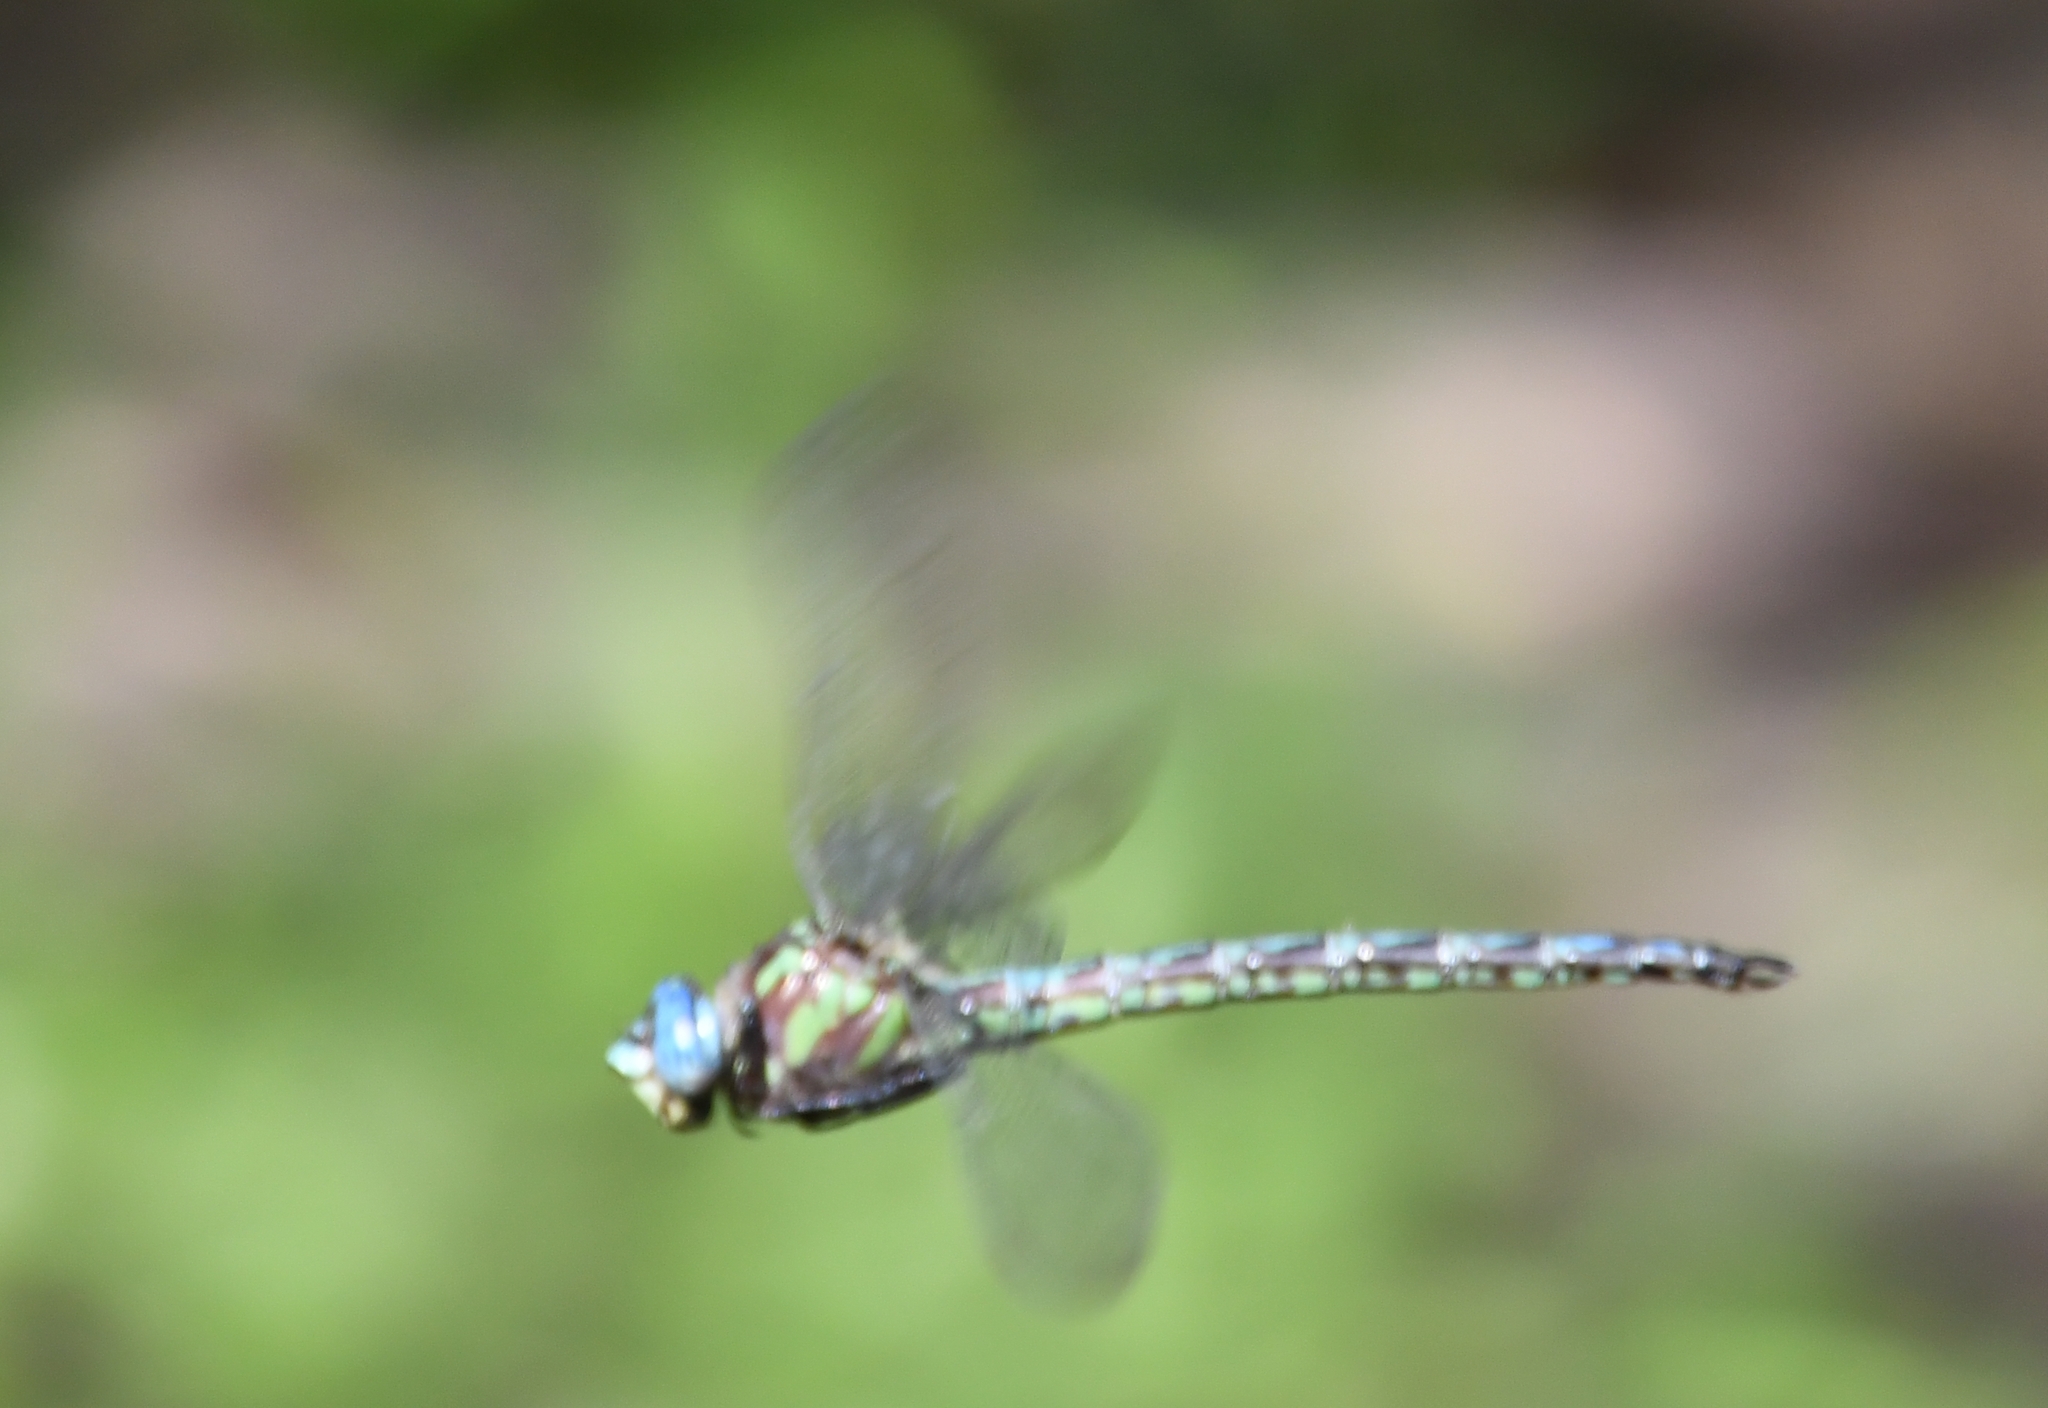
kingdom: Animalia
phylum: Arthropoda
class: Insecta
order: Odonata
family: Aeshnidae
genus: Nasiaeschna
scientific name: Nasiaeschna pentacantha
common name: Cyrano darner
